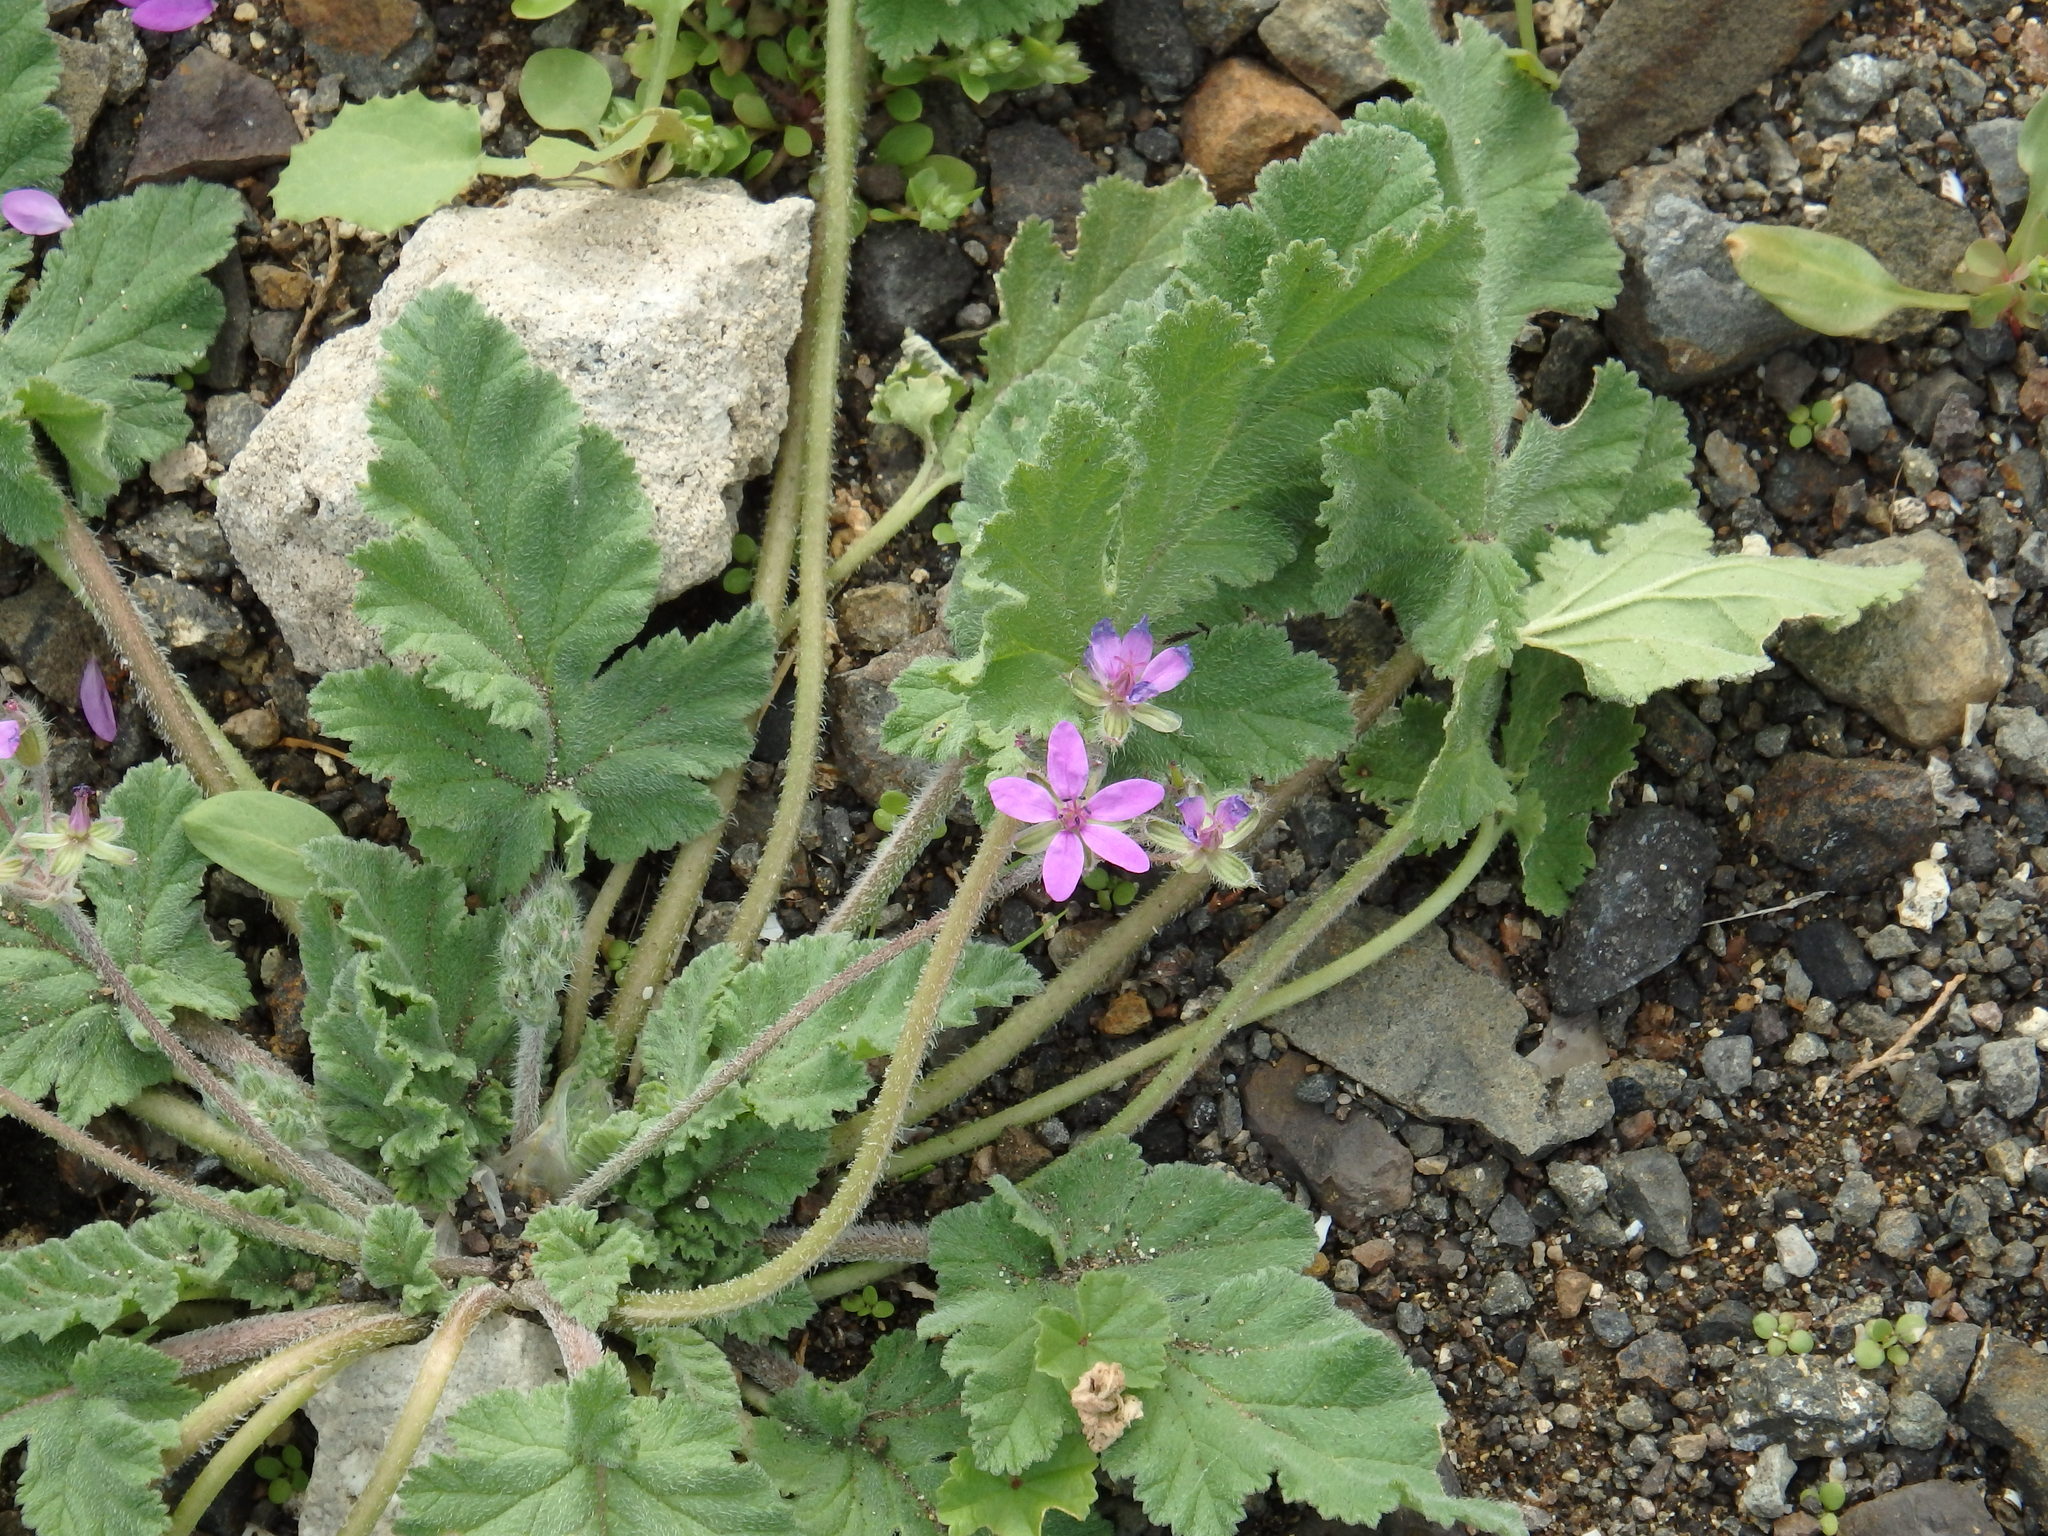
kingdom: Plantae
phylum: Tracheophyta
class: Magnoliopsida
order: Geraniales
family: Geraniaceae
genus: Erodium
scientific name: Erodium malacoides
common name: Soft stork's-bill
